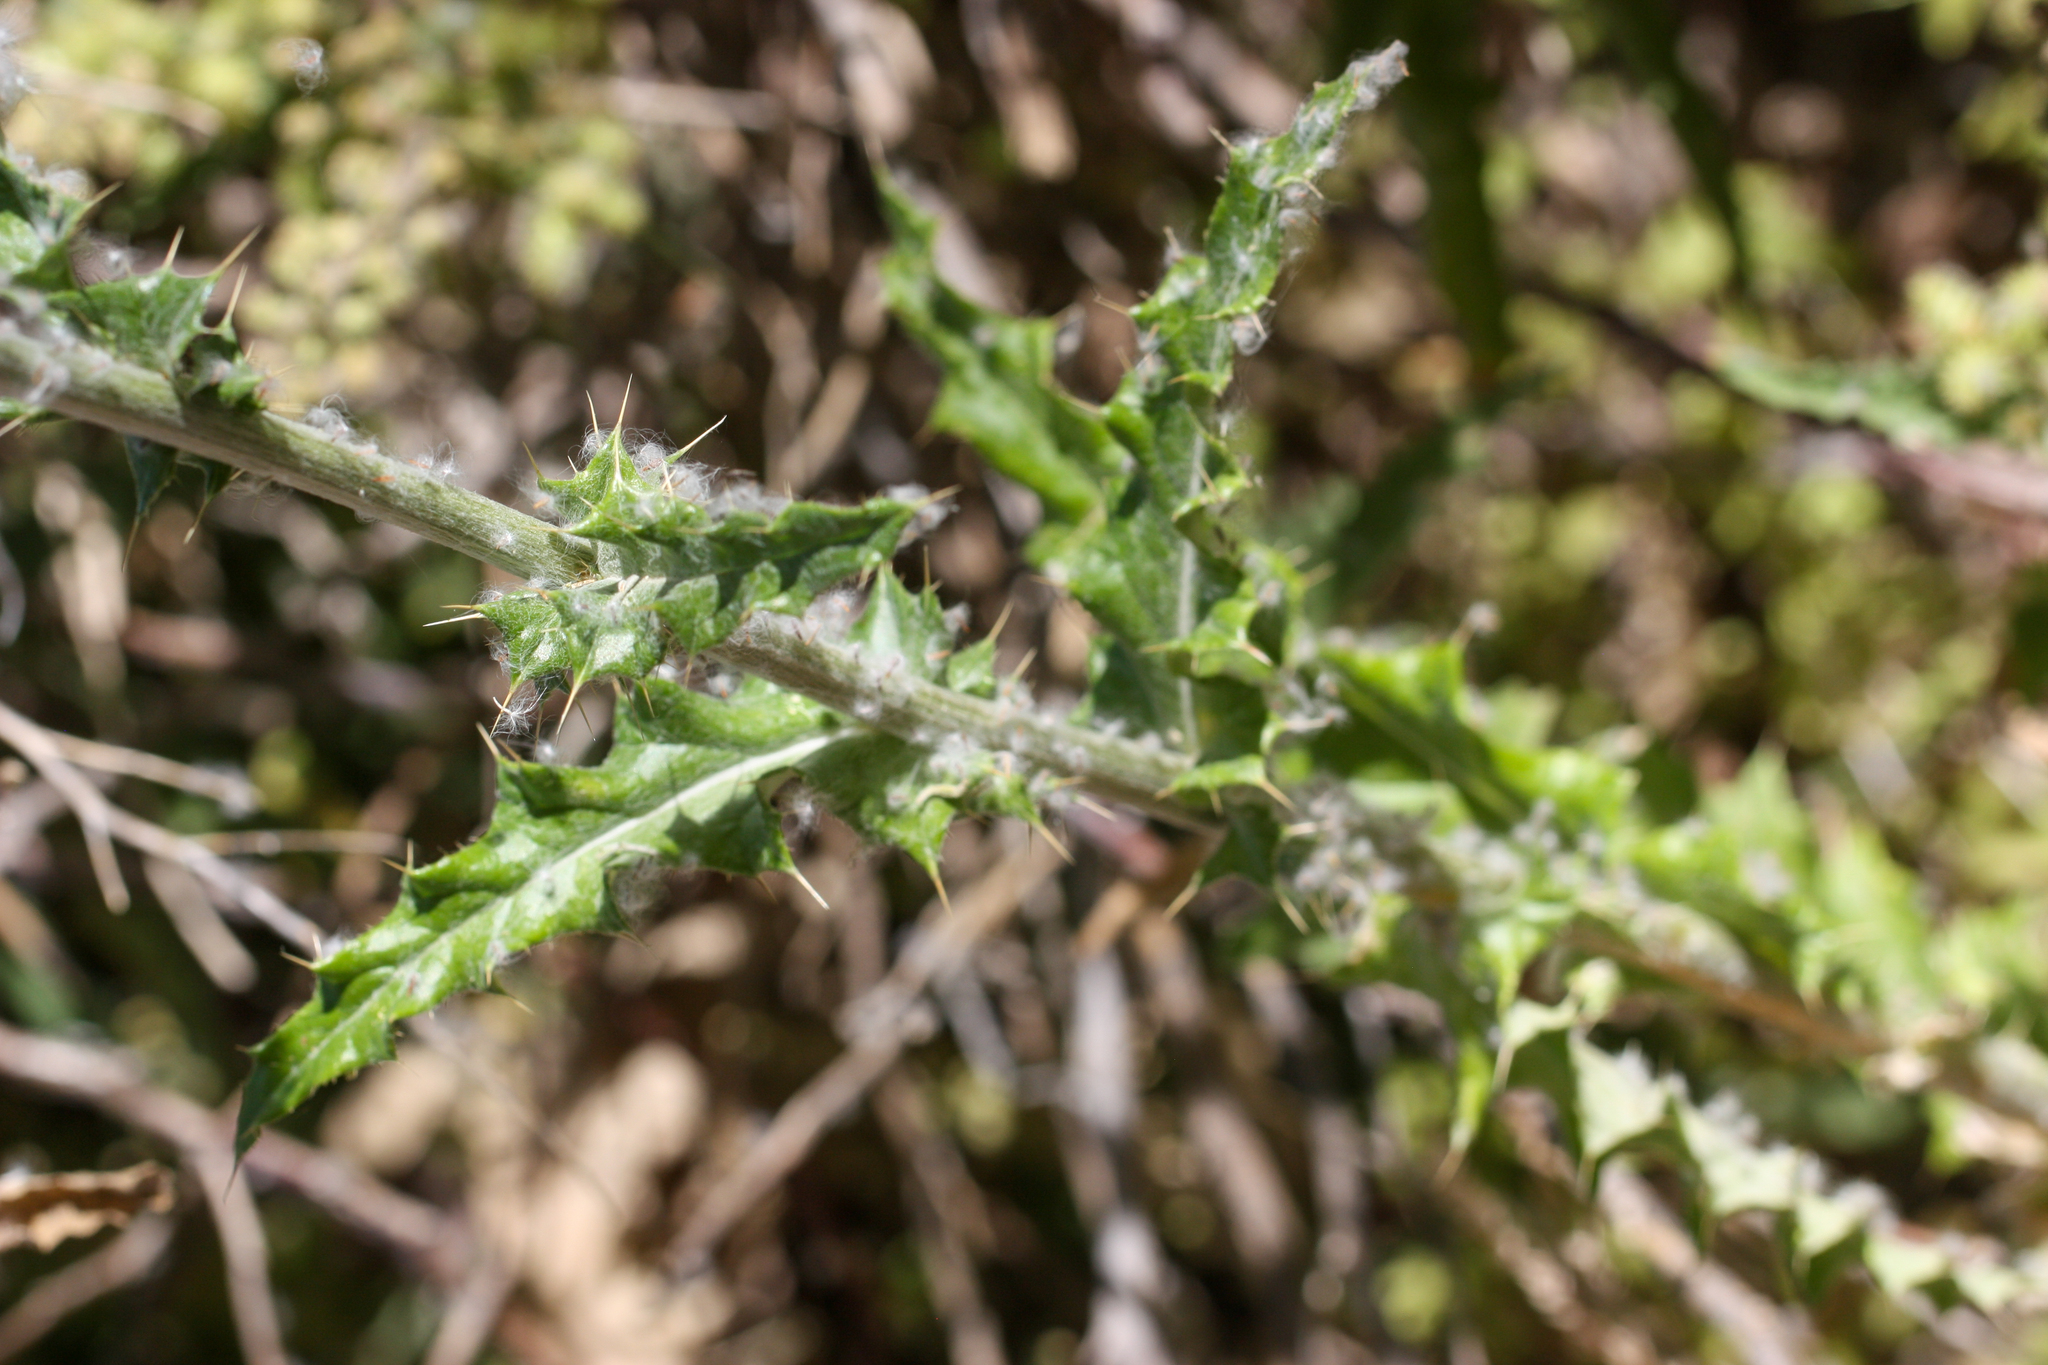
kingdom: Plantae
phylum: Tracheophyta
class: Magnoliopsida
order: Asterales
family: Asteraceae
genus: Cirsium
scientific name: Cirsium neomexicanum
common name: New mexico thistle
